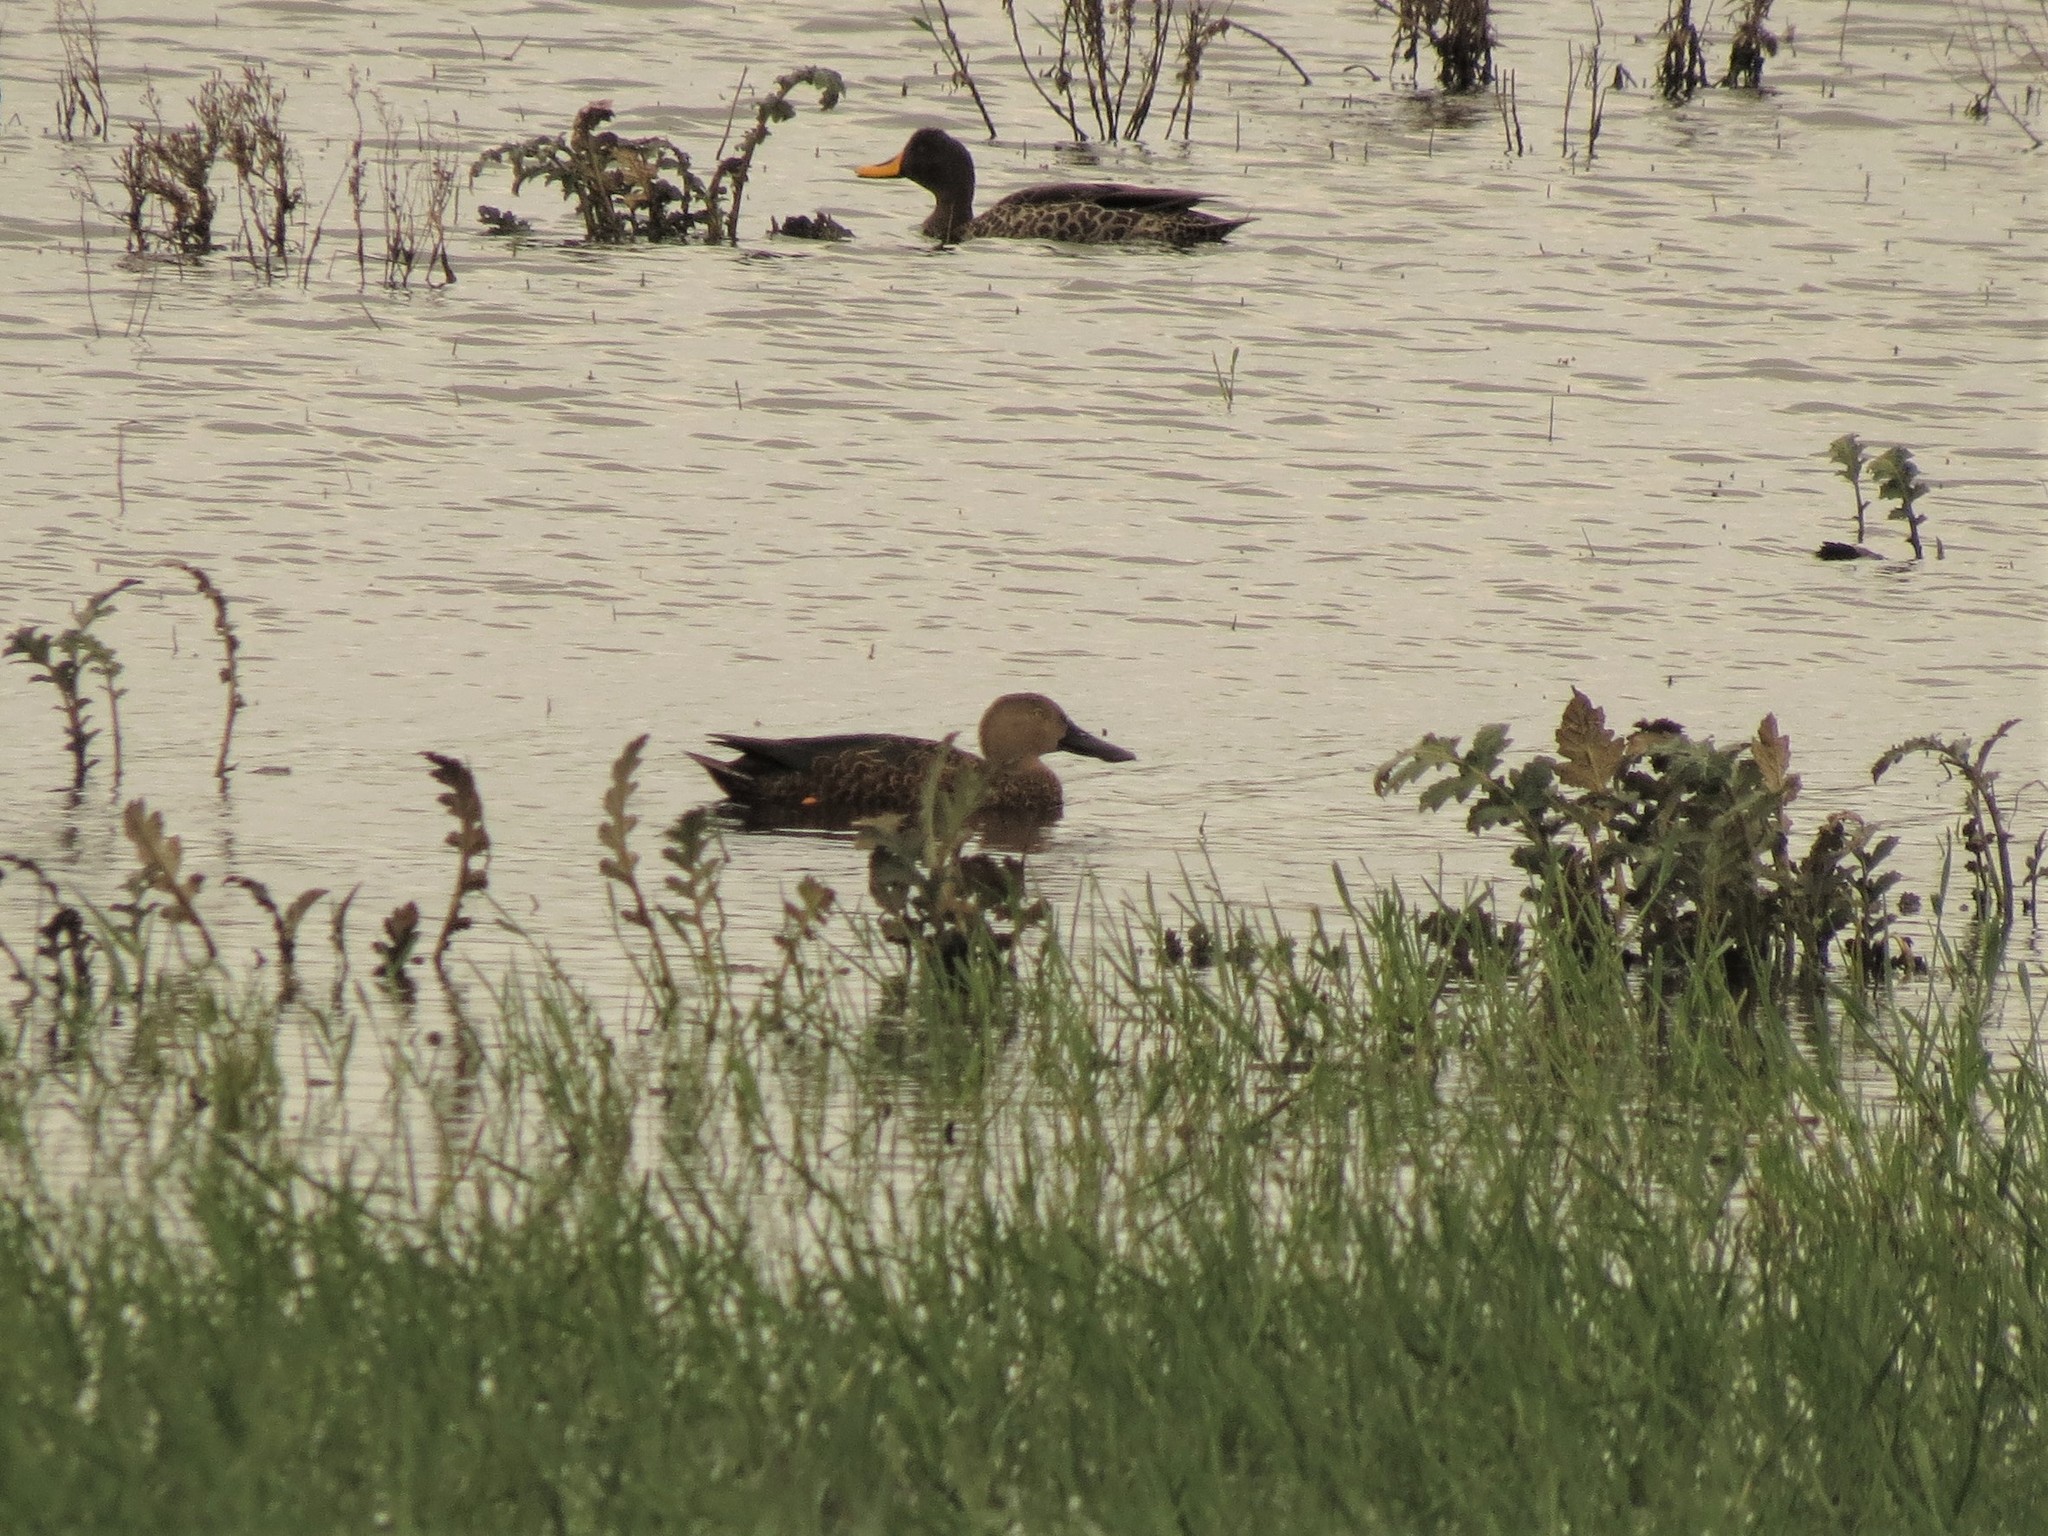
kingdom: Animalia
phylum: Chordata
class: Aves
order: Anseriformes
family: Anatidae
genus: Spatula
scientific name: Spatula smithii
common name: Cape shoveler
